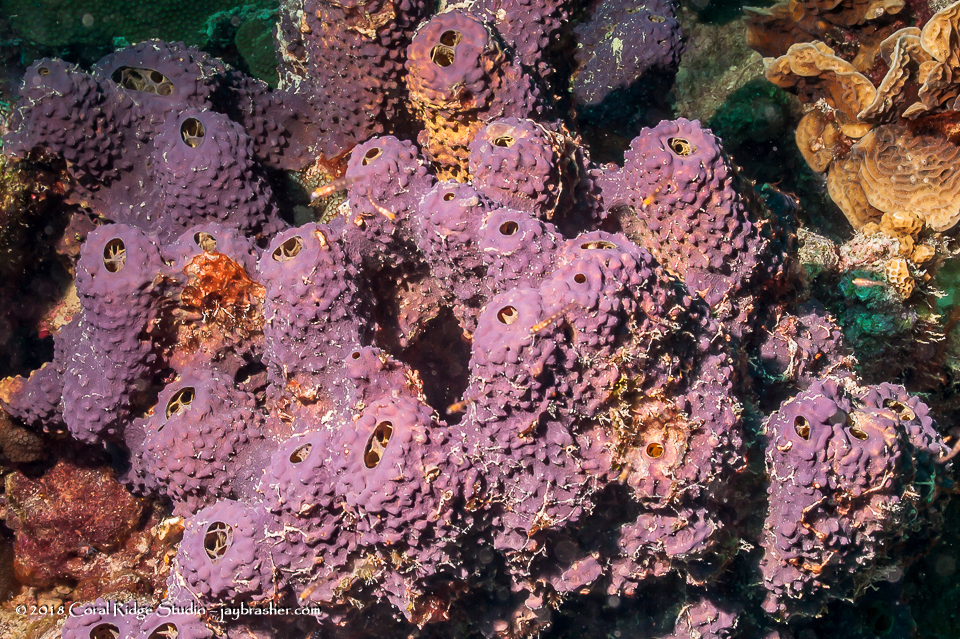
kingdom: Animalia
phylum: Porifera
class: Demospongiae
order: Verongiida
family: Aplysinidae
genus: Aiolochroia
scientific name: Aiolochroia crassa
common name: Branching tube sponge
